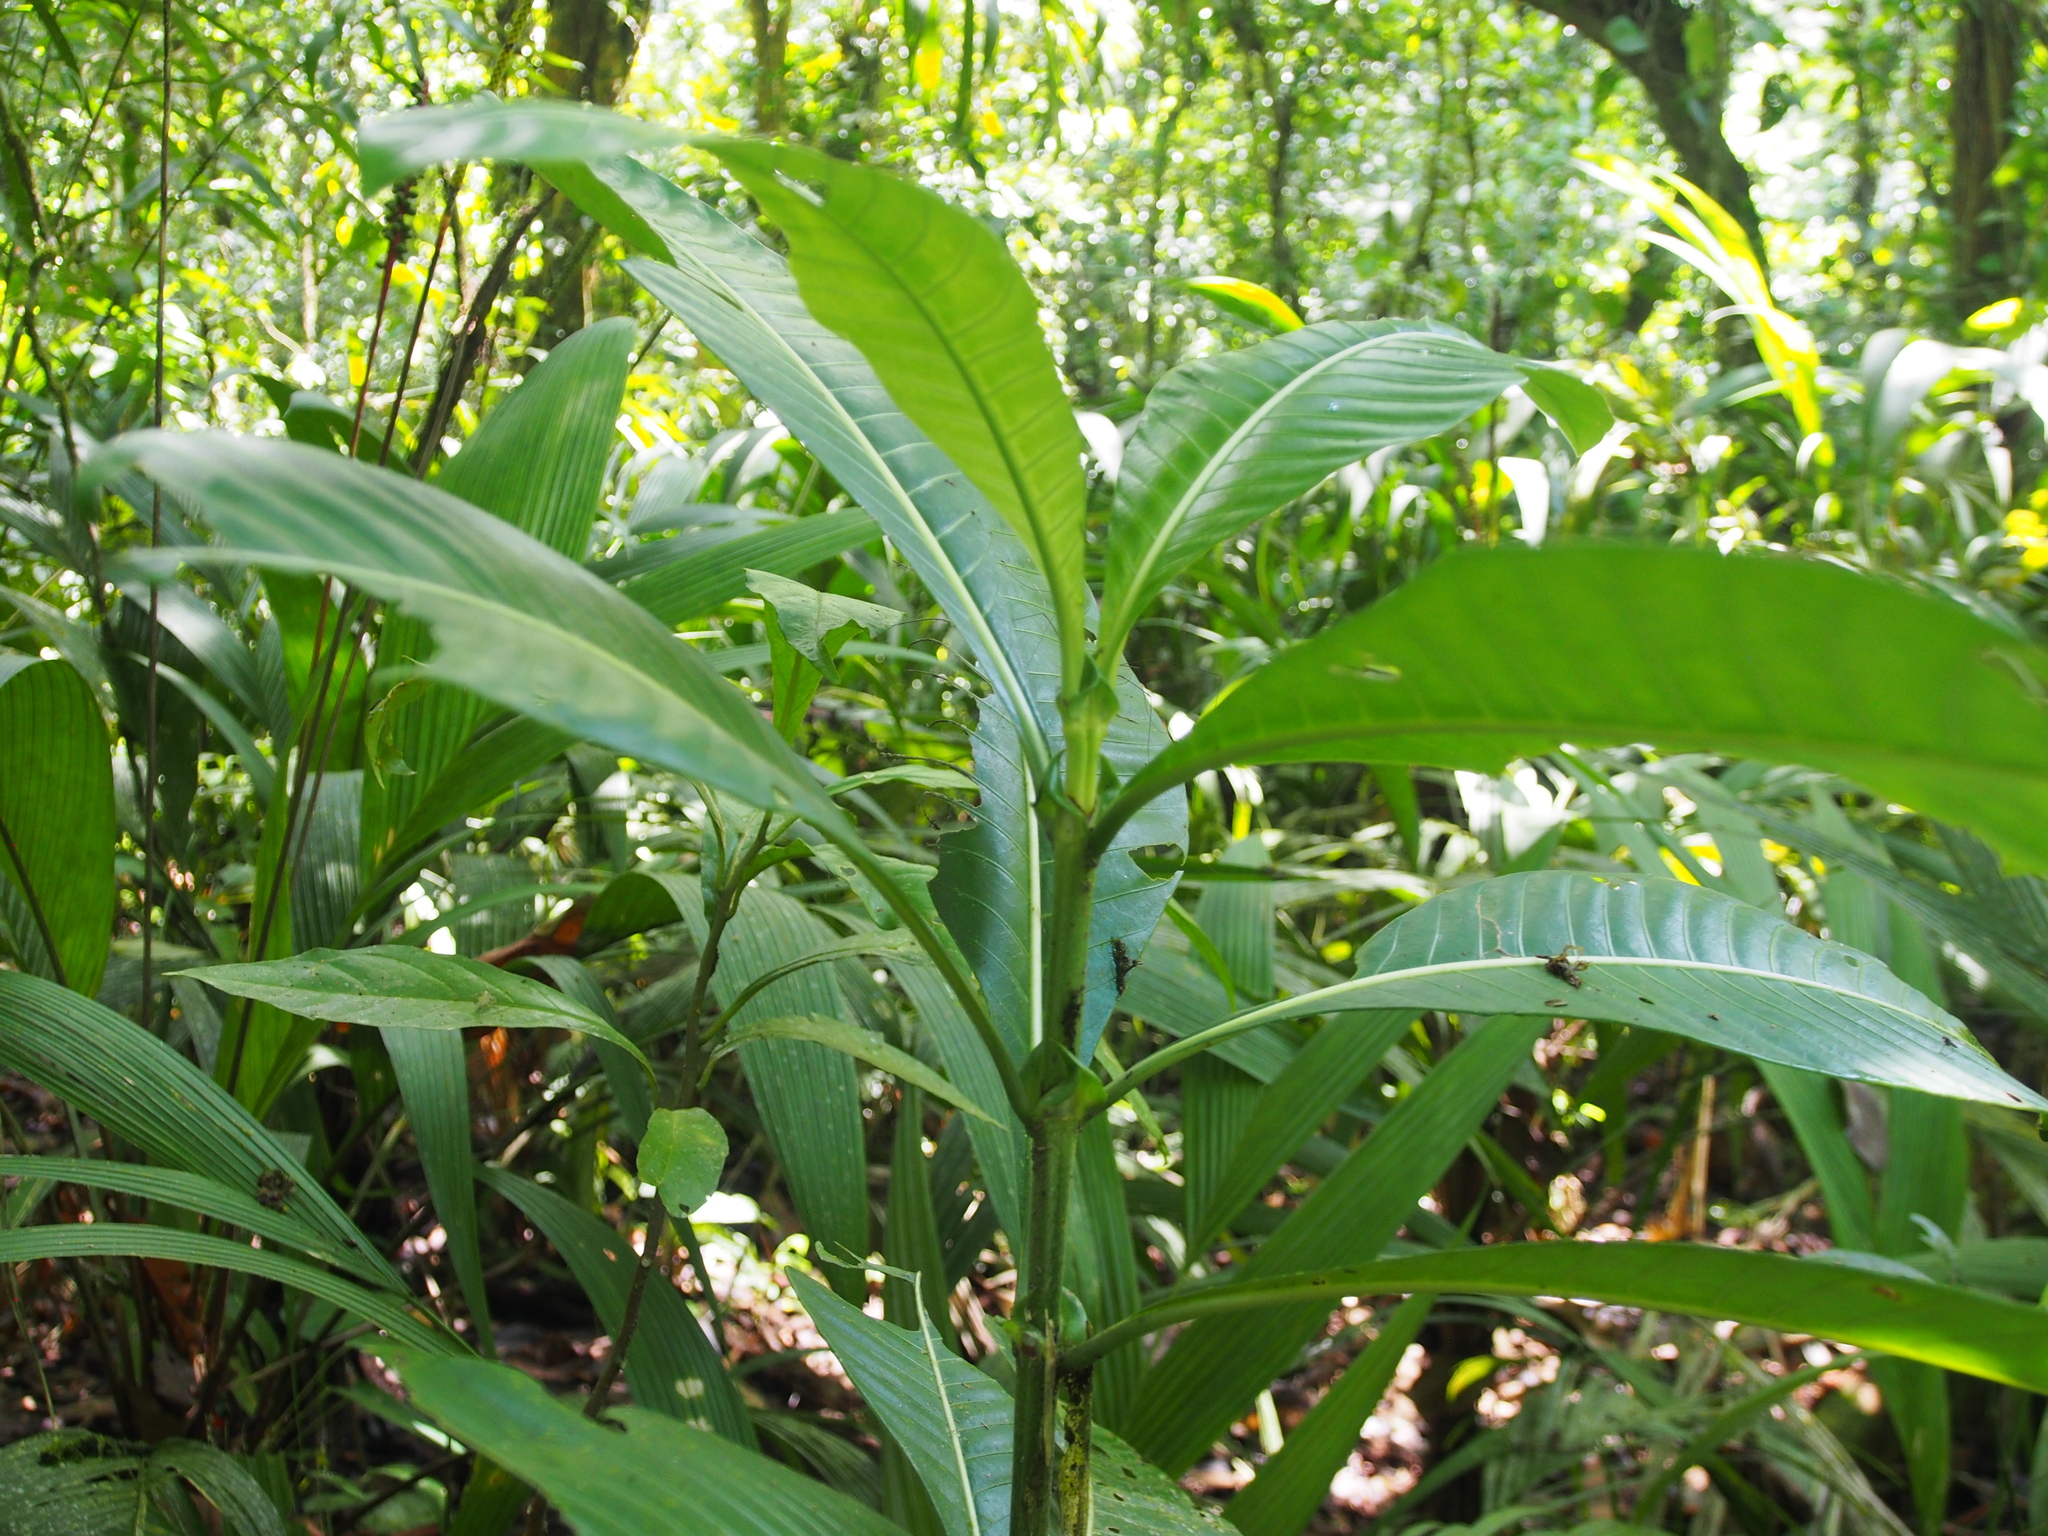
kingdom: Plantae
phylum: Tracheophyta
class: Magnoliopsida
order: Gentianales
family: Rubiaceae
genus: Psychotria
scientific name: Psychotria grandis
